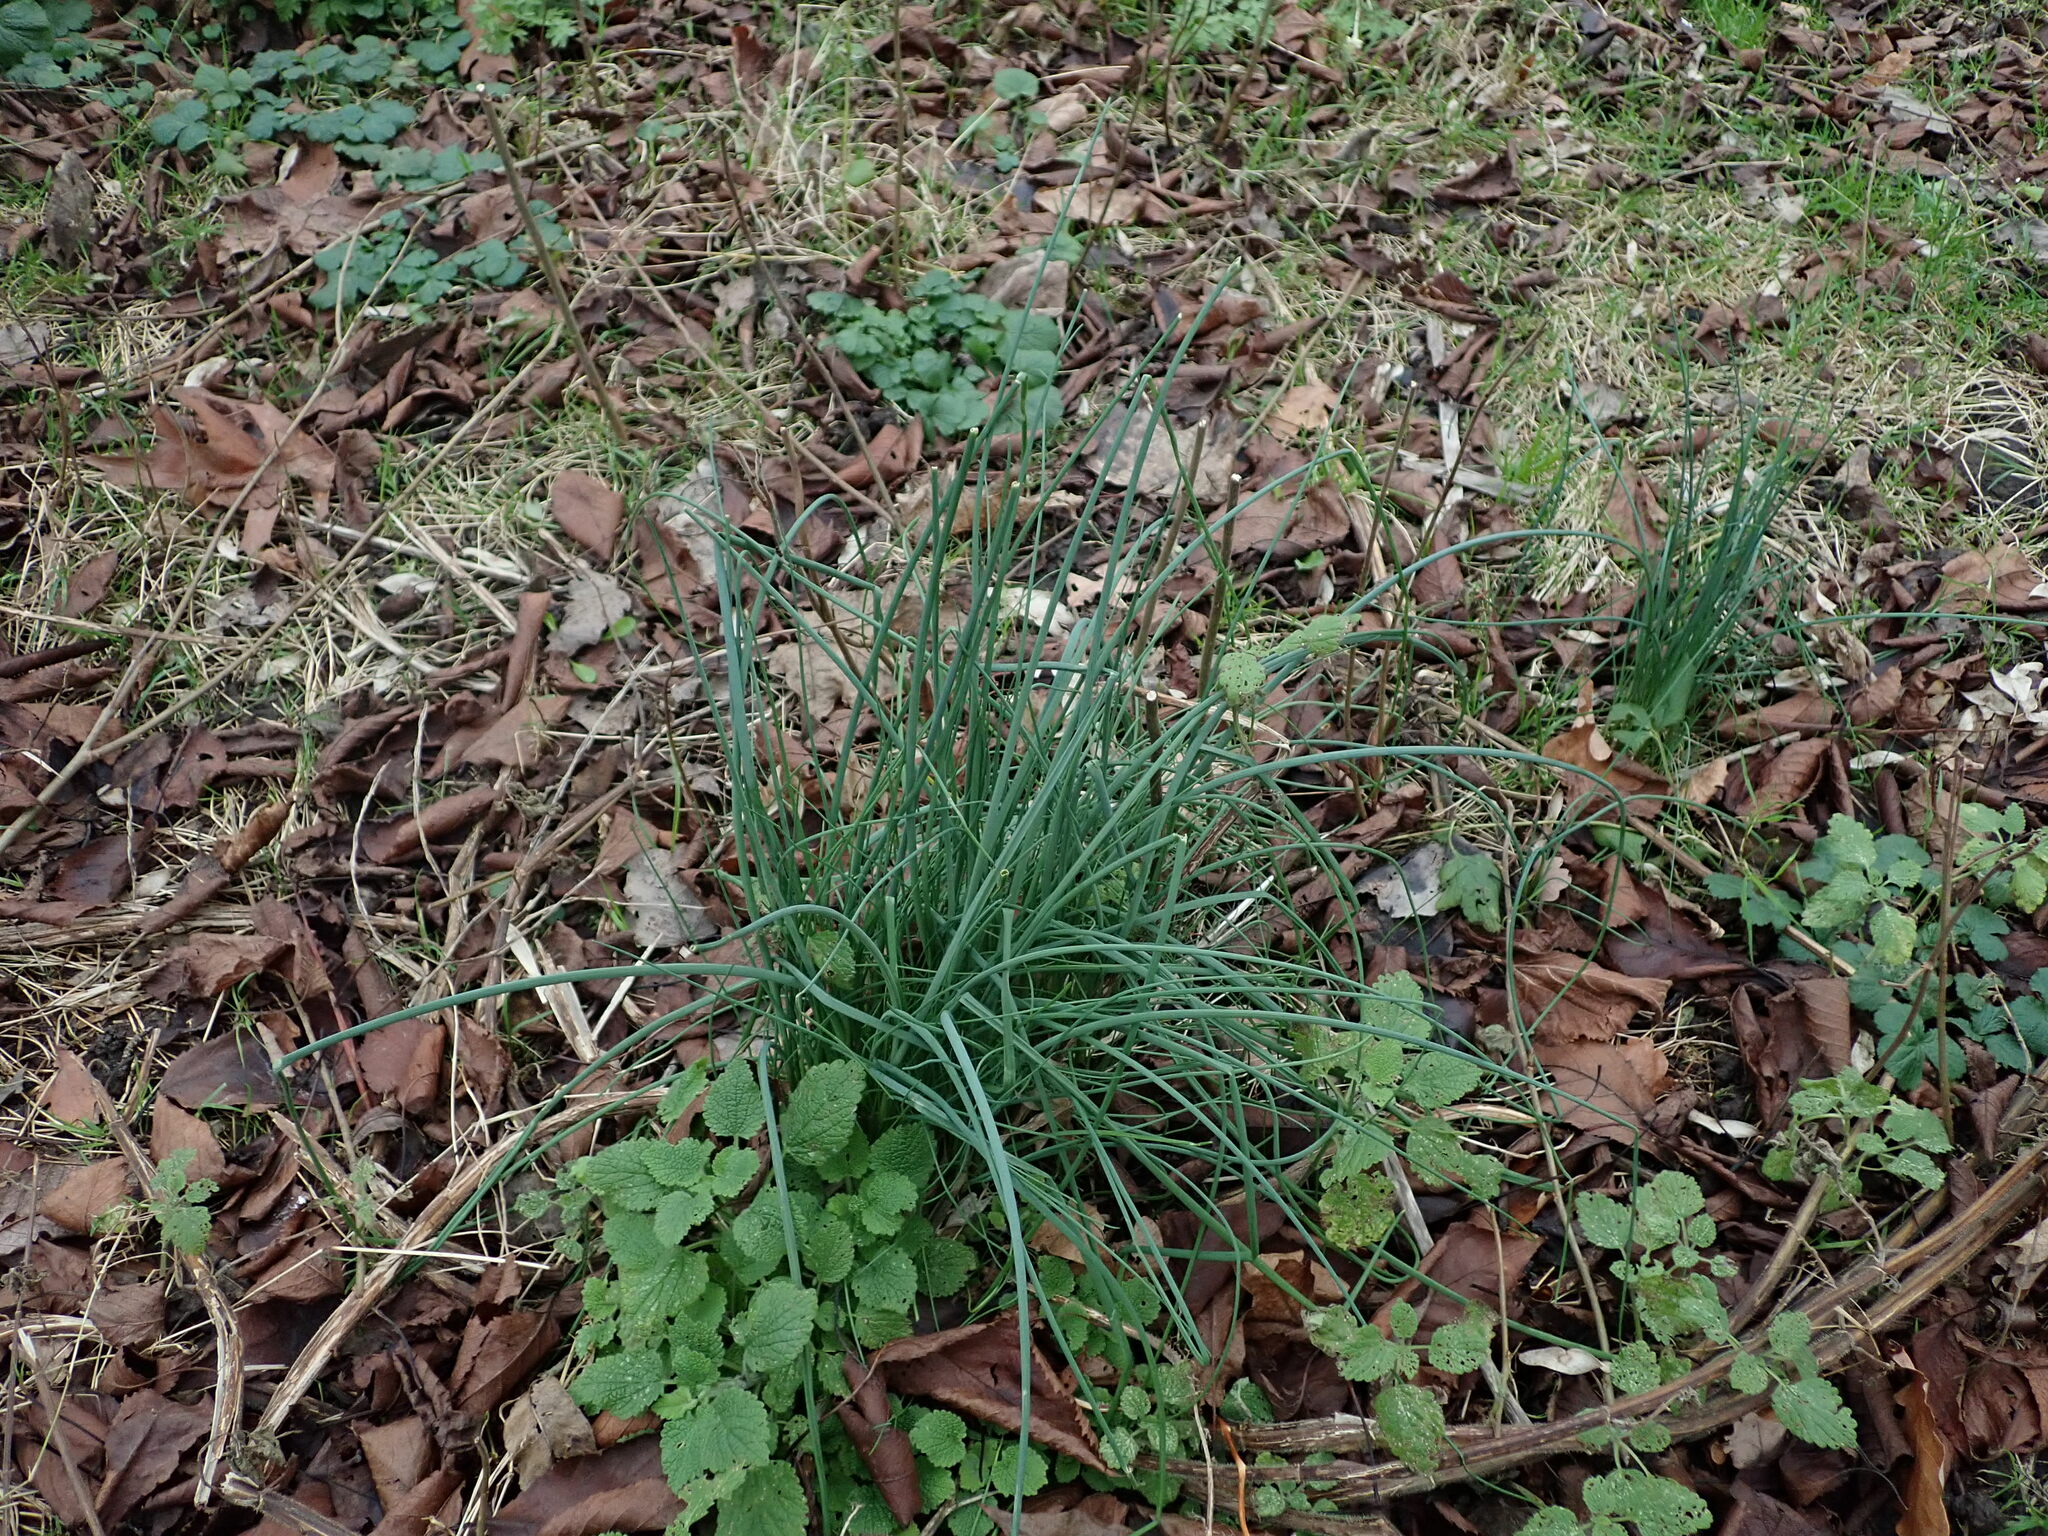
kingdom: Plantae
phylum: Tracheophyta
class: Liliopsida
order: Asparagales
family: Amaryllidaceae
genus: Allium
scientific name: Allium vineale
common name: Crow garlic
